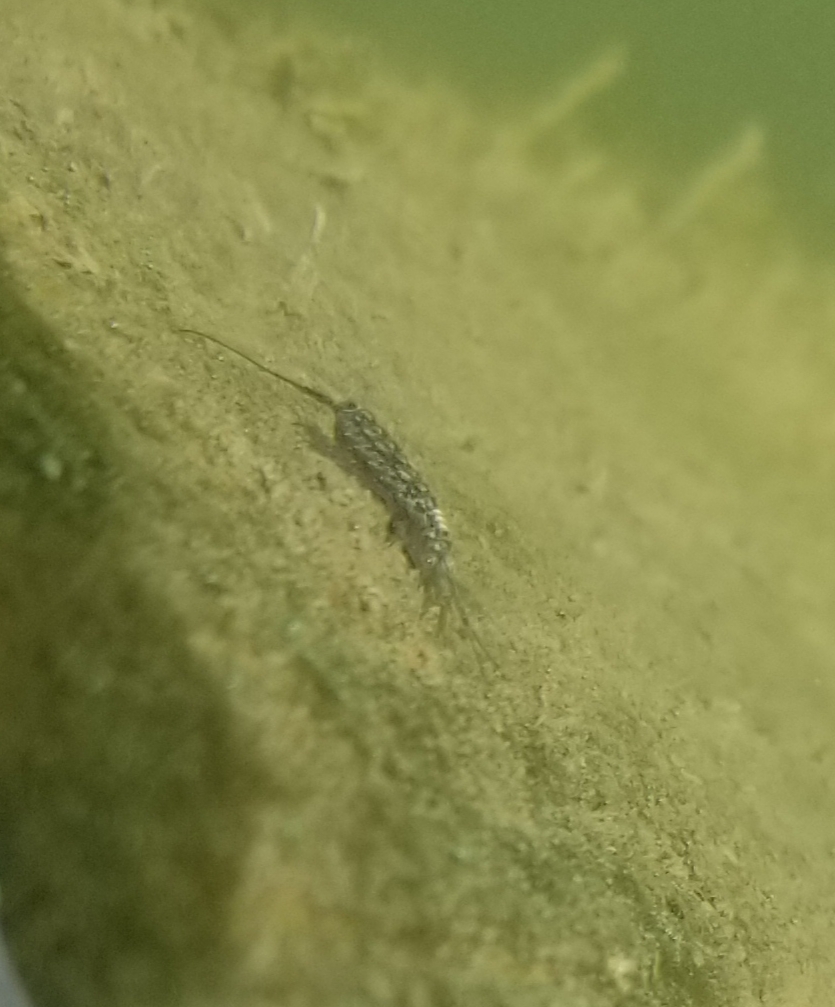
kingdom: Animalia
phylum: Arthropoda
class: Malacostraca
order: Isopoda
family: Ligiidae
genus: Ligia
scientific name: Ligia exotica
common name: Wharf roach
